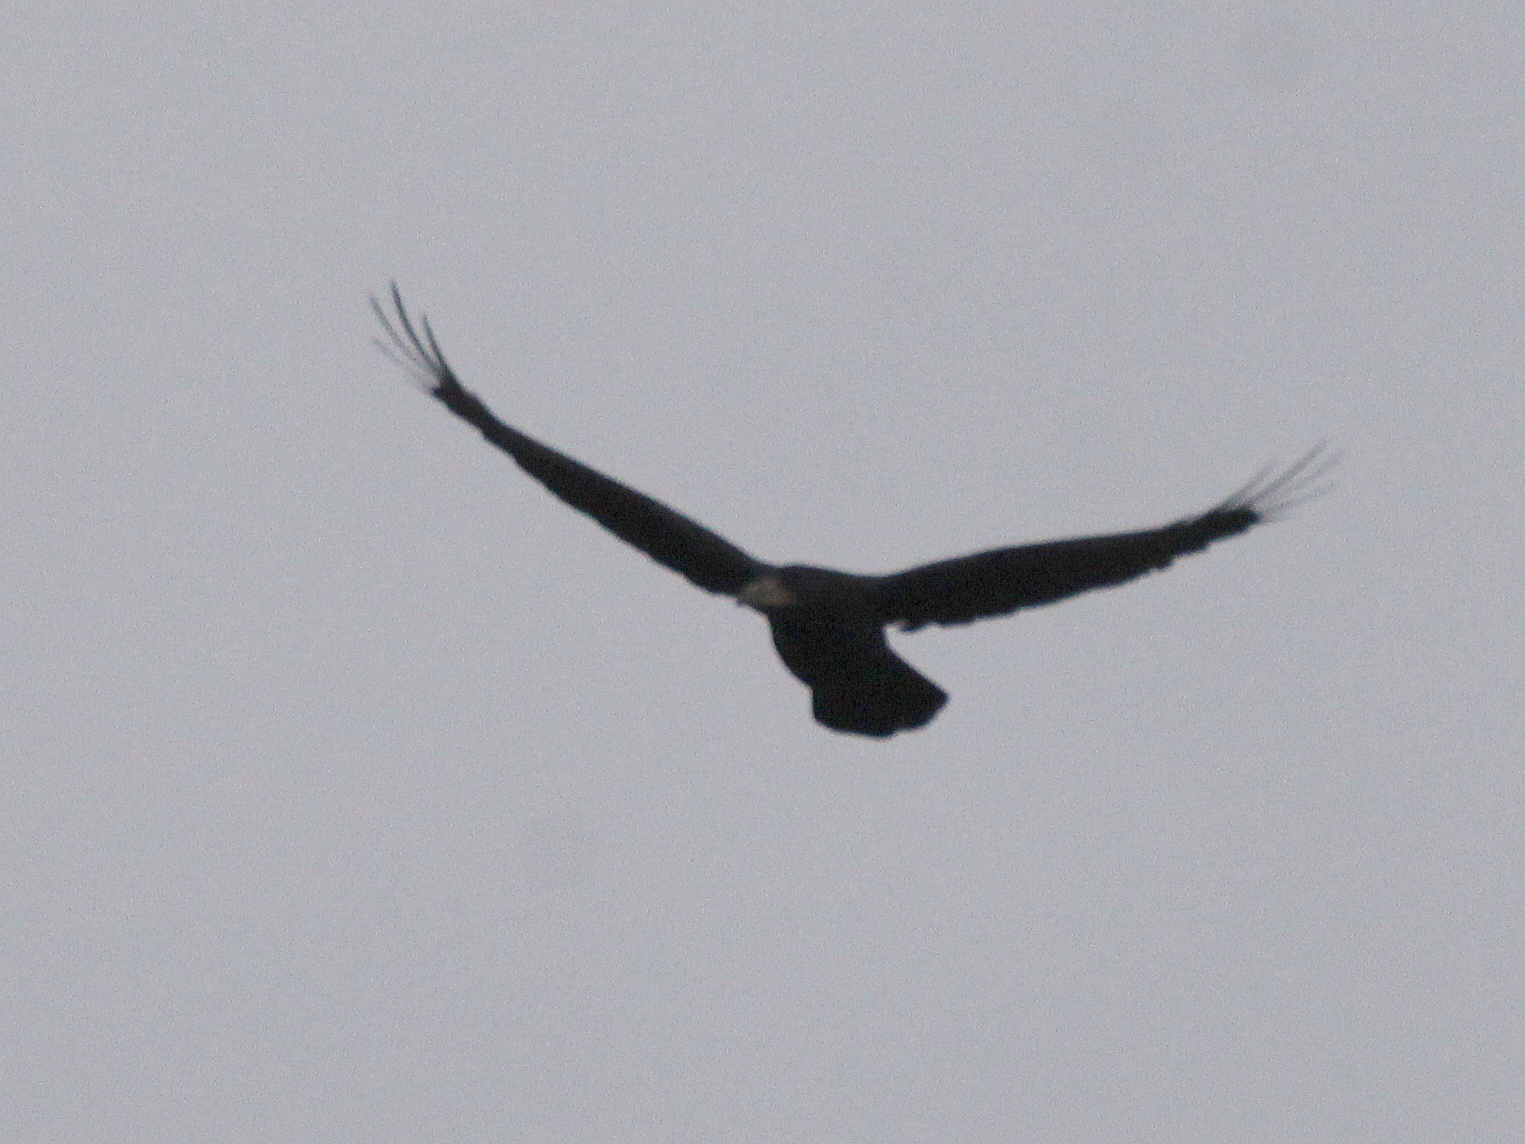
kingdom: Animalia
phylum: Chordata
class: Aves
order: Passeriformes
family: Corvidae
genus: Corvus
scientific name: Corvus frugilegus
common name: Rook
